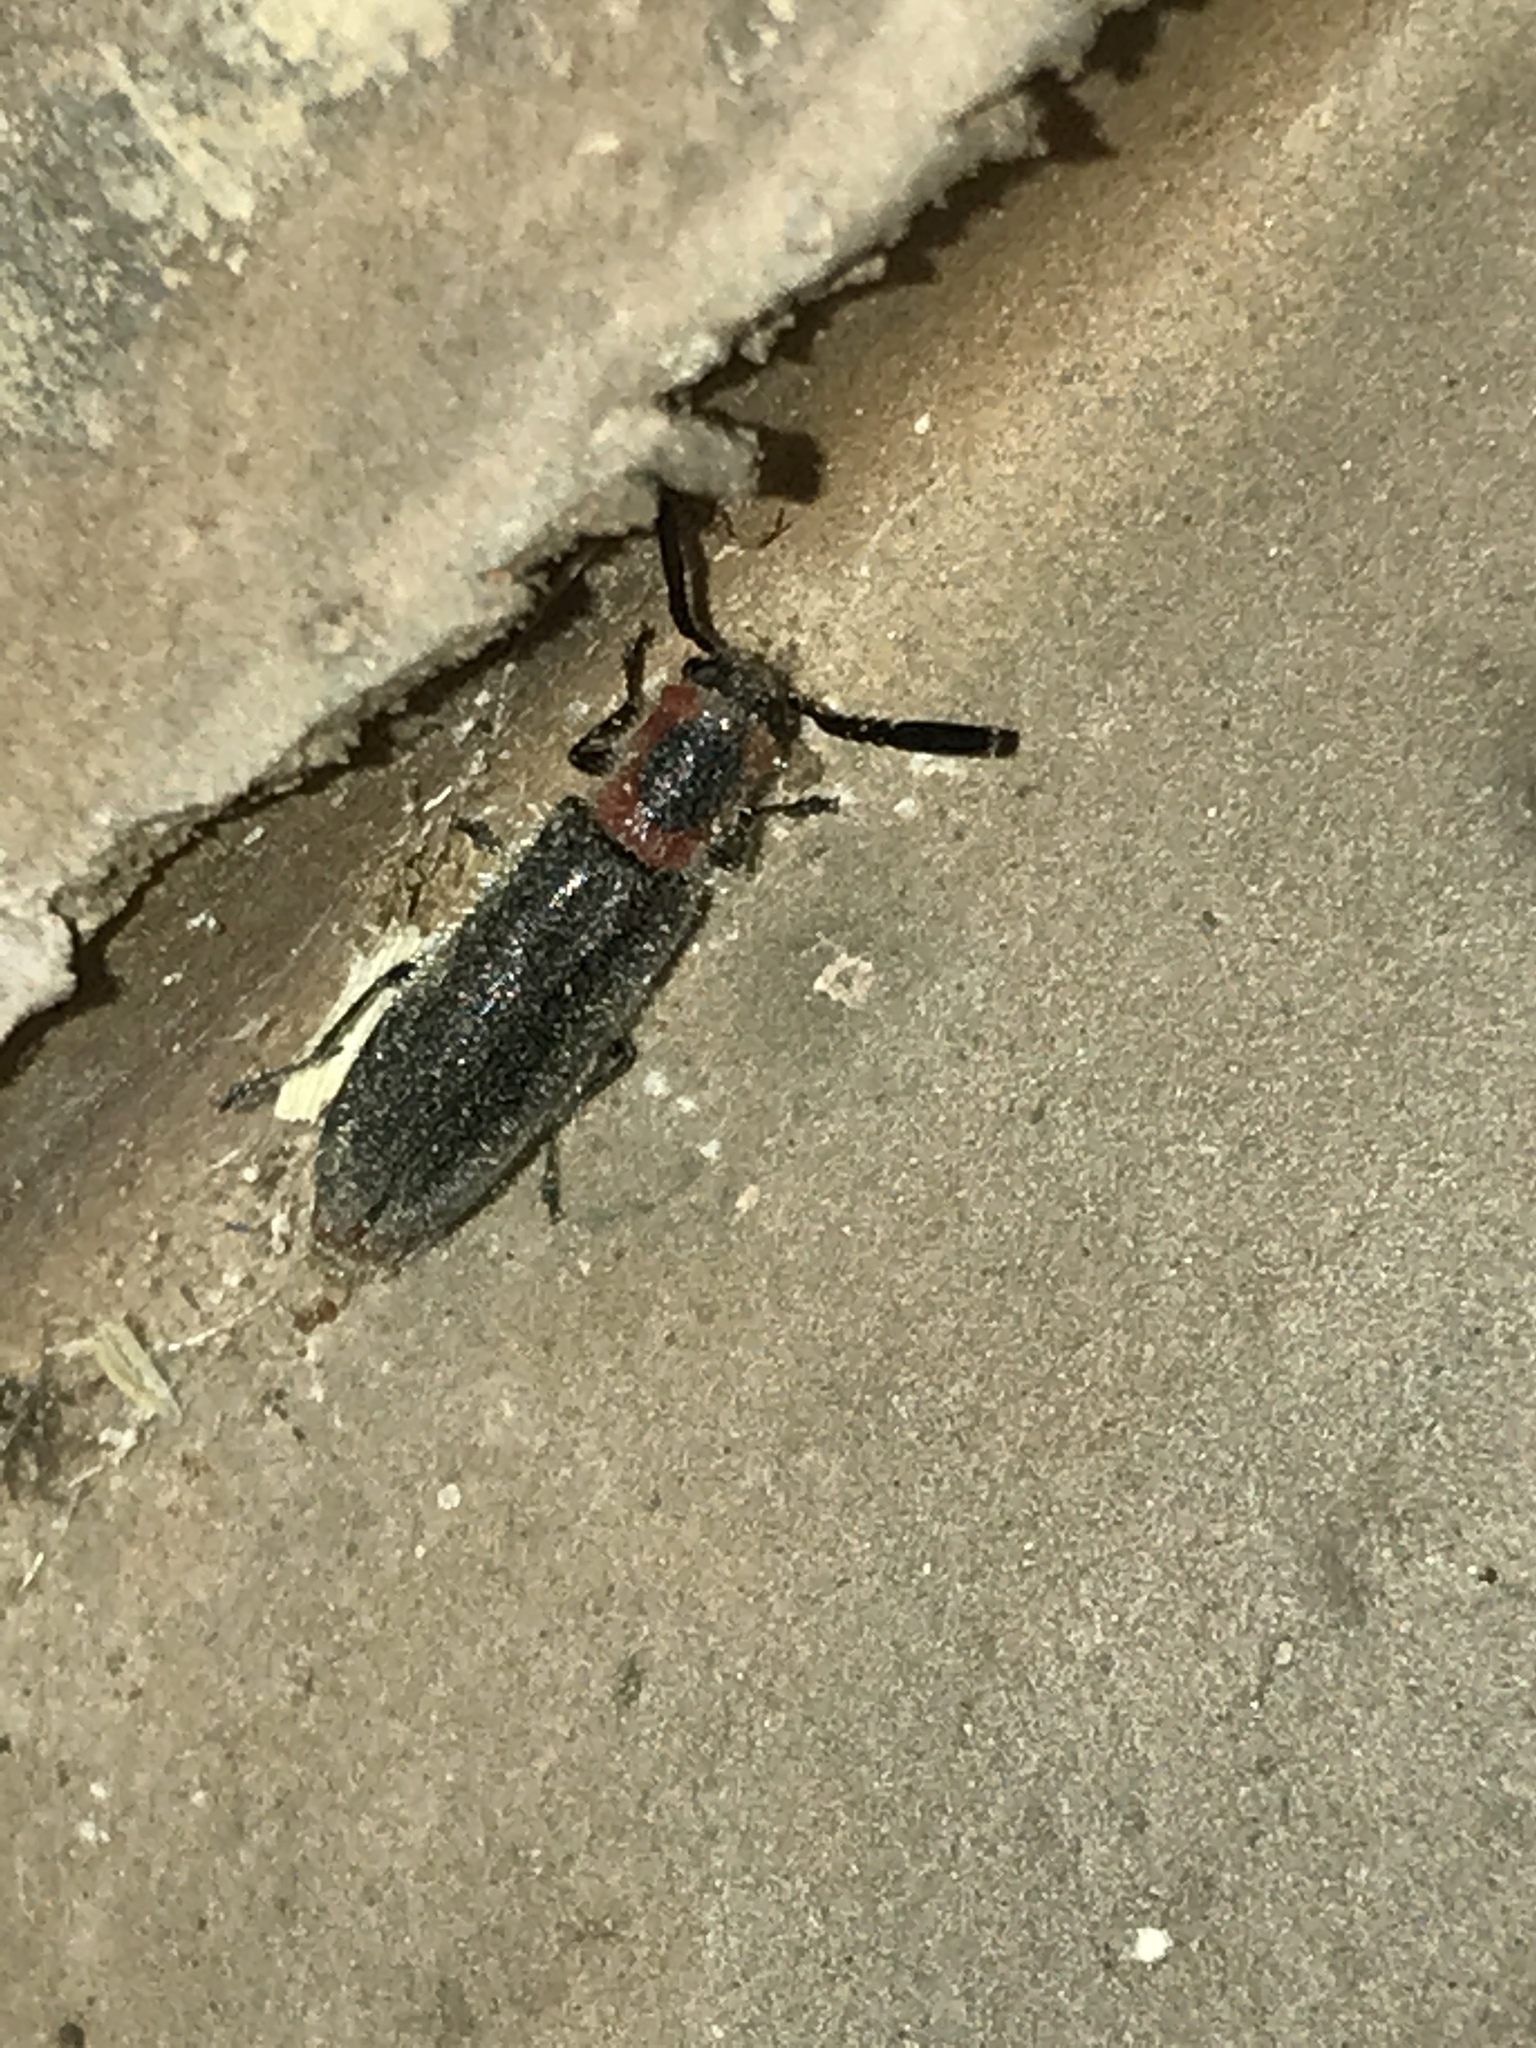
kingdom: Animalia
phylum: Arthropoda
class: Insecta
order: Coleoptera
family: Cleridae
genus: Monophylla
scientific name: Monophylla terminata
